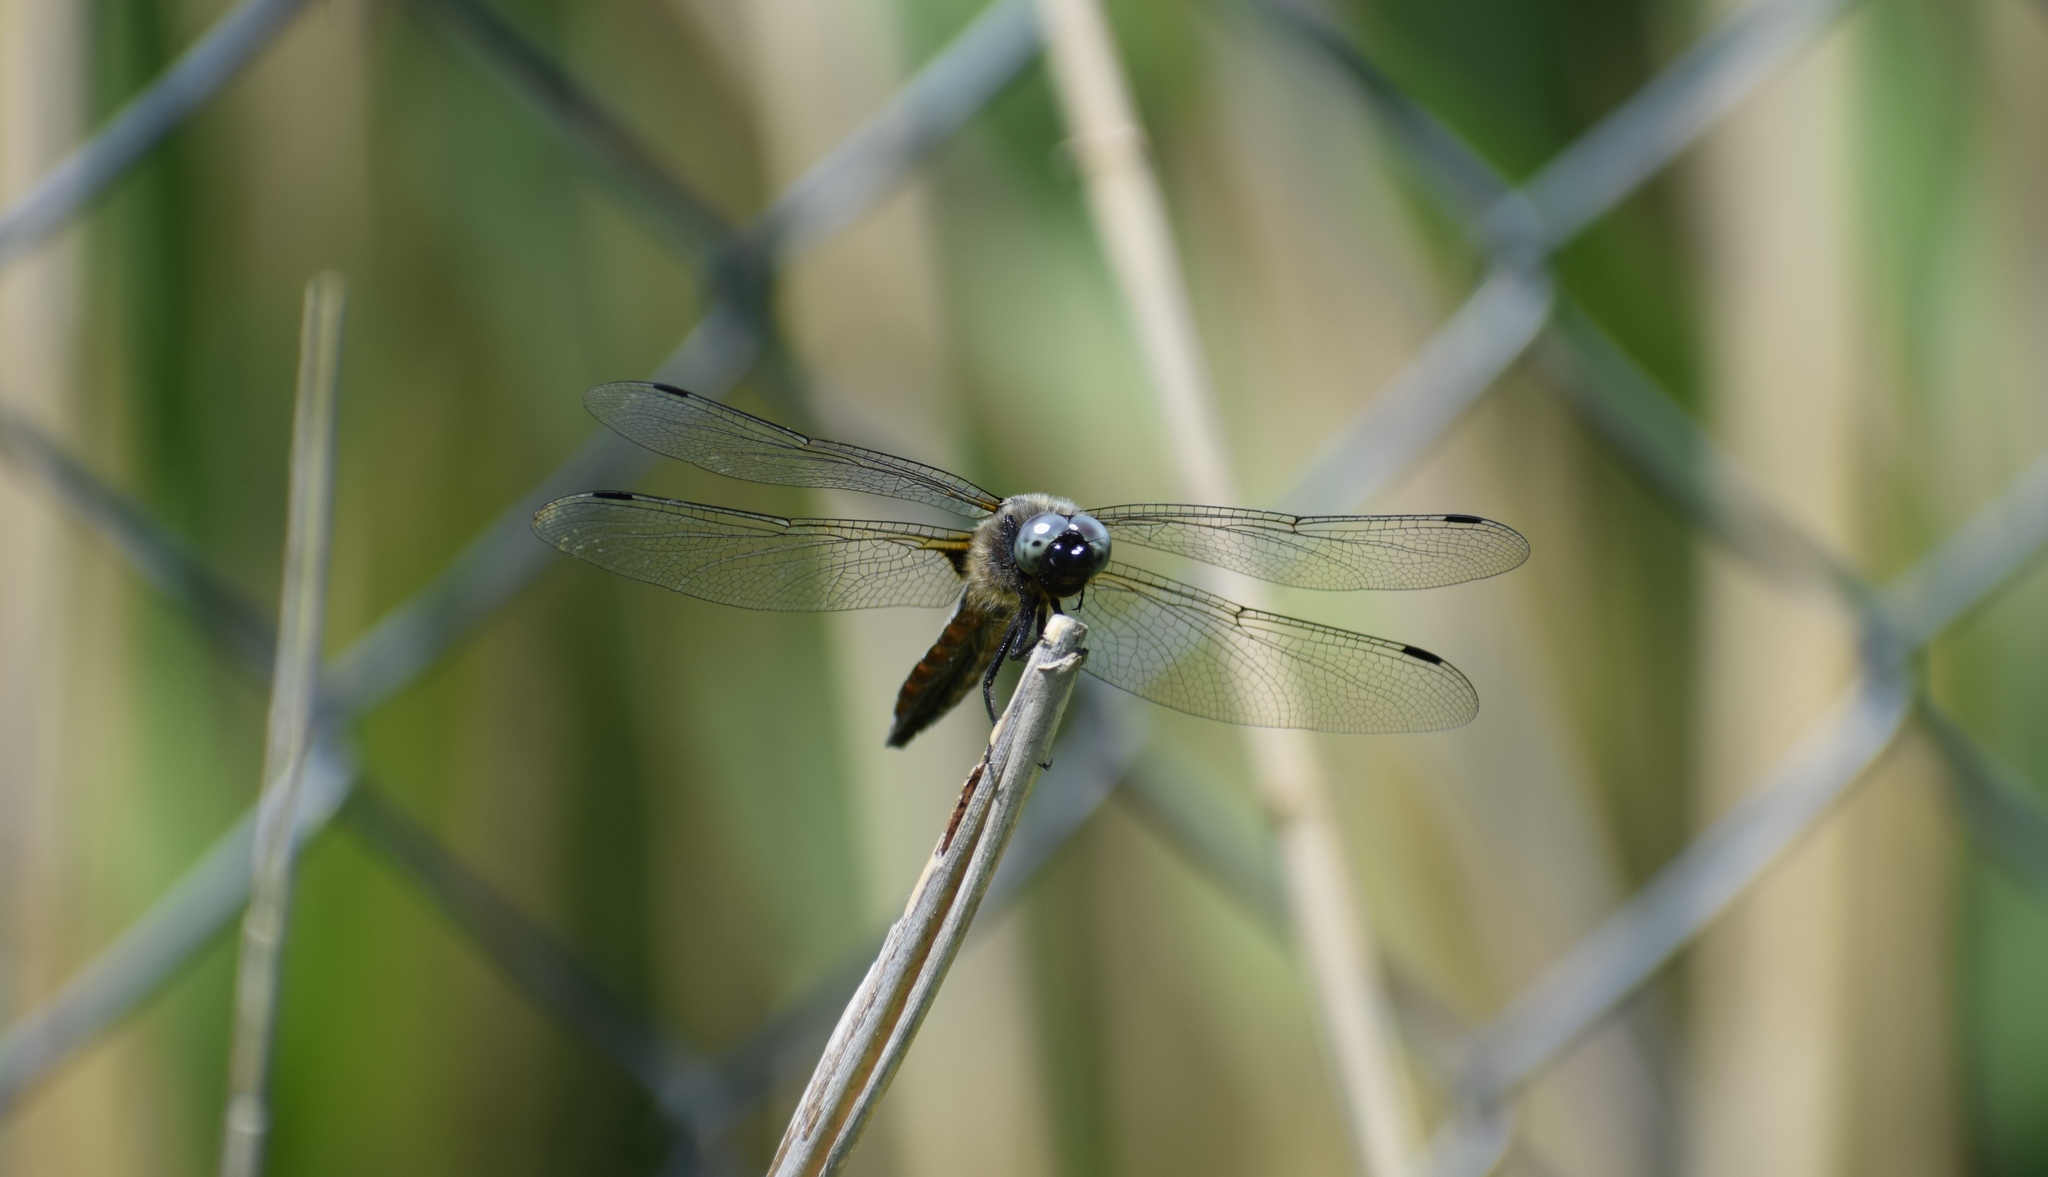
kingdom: Animalia
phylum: Arthropoda
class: Insecta
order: Odonata
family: Libellulidae
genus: Libellula
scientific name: Libellula quadrimaculata
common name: Four-spotted chaser
